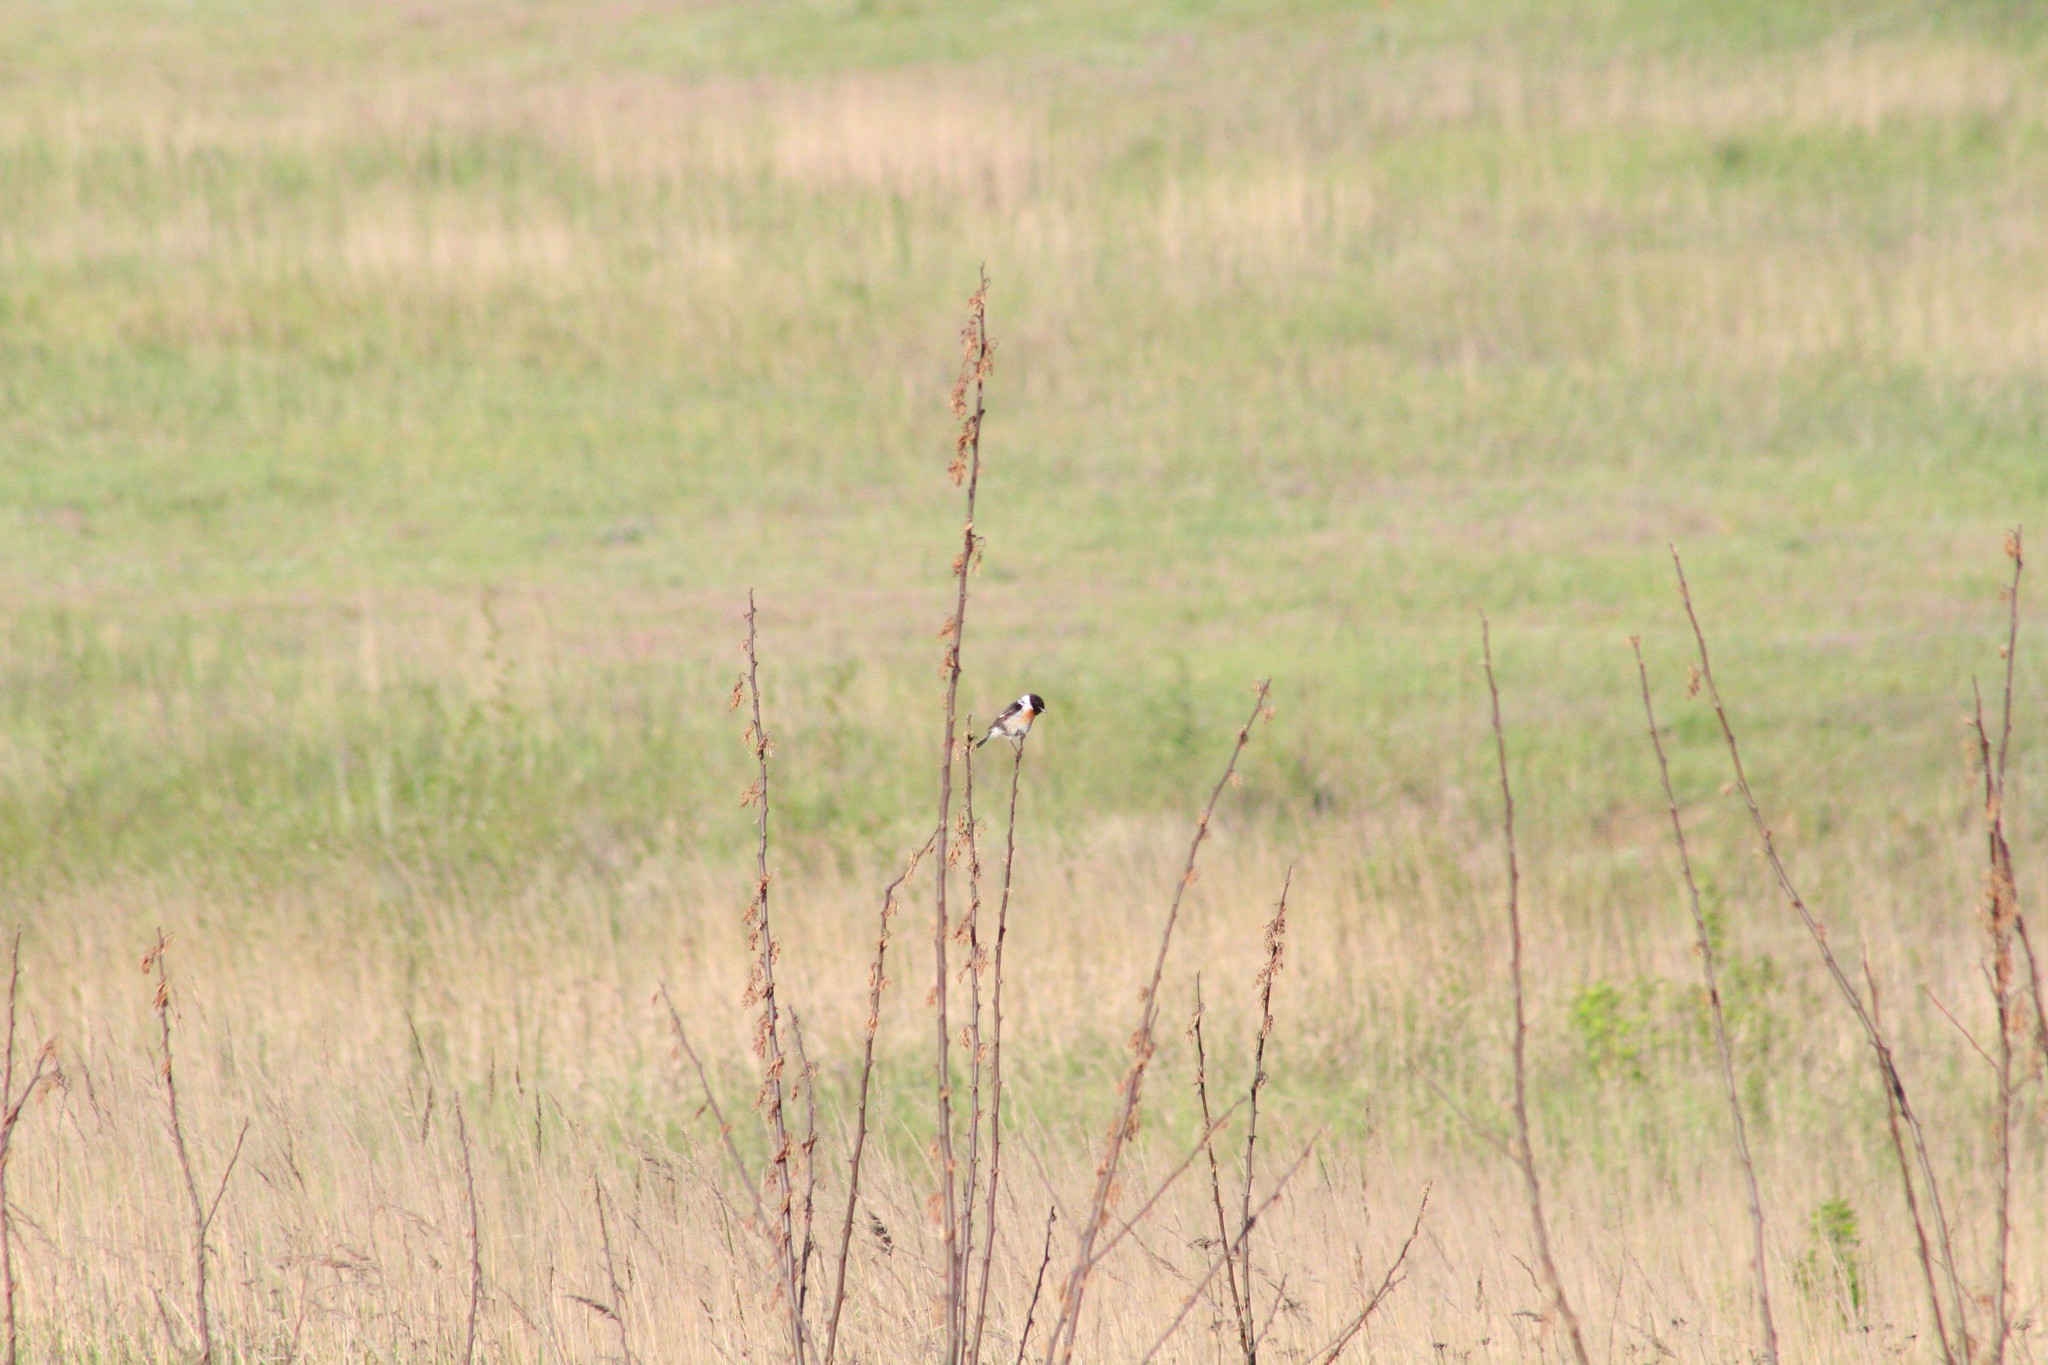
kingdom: Animalia
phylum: Chordata
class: Aves
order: Passeriformes
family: Muscicapidae
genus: Saxicola
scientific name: Saxicola rubicola
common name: European stonechat
